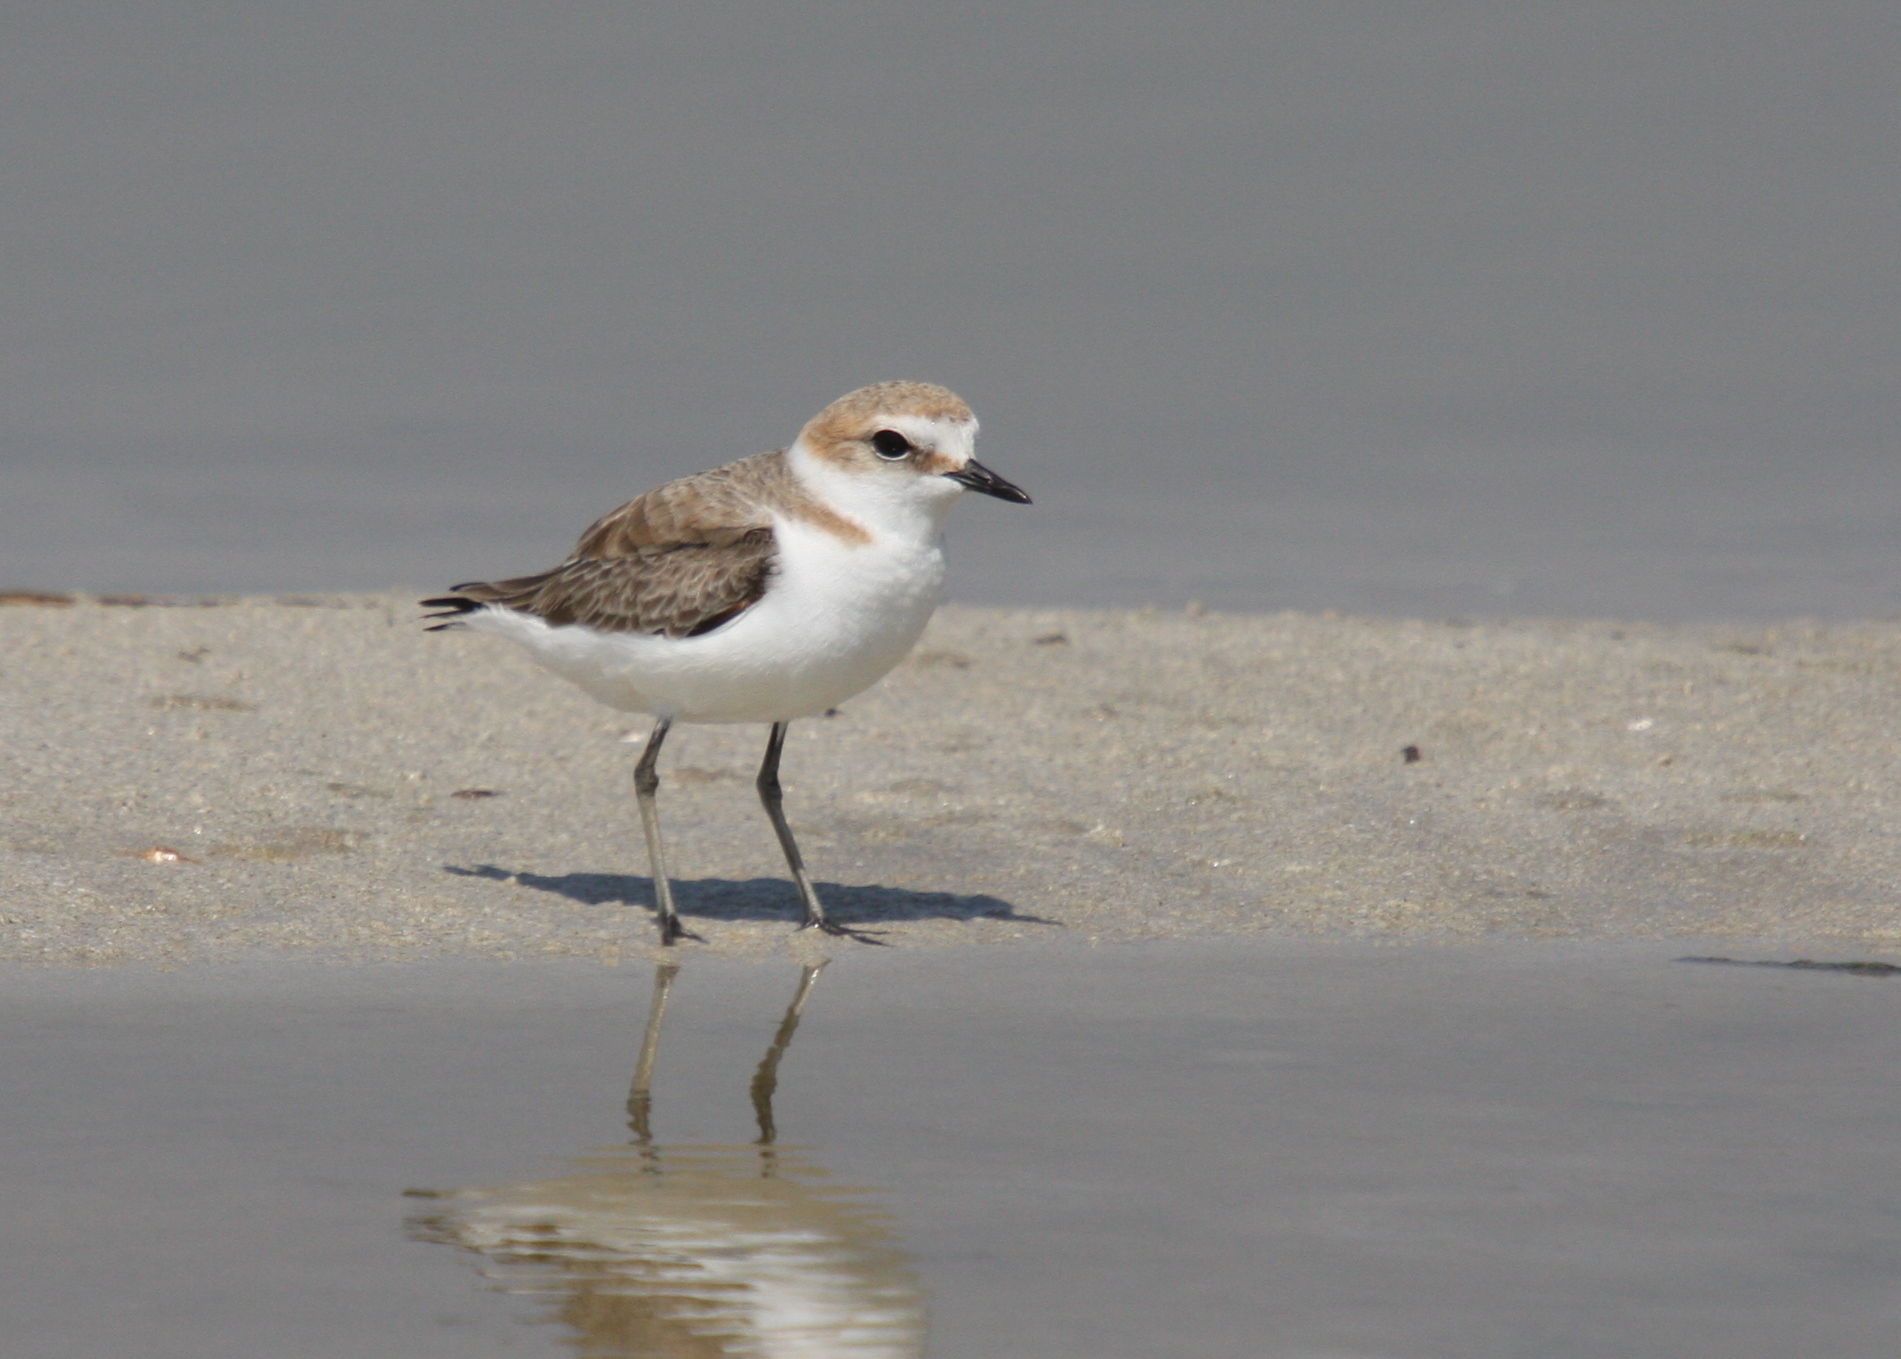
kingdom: Animalia
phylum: Chordata
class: Aves
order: Charadriiformes
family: Charadriidae
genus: Charadrius
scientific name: Charadrius alexandrinus
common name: Kentish plover
